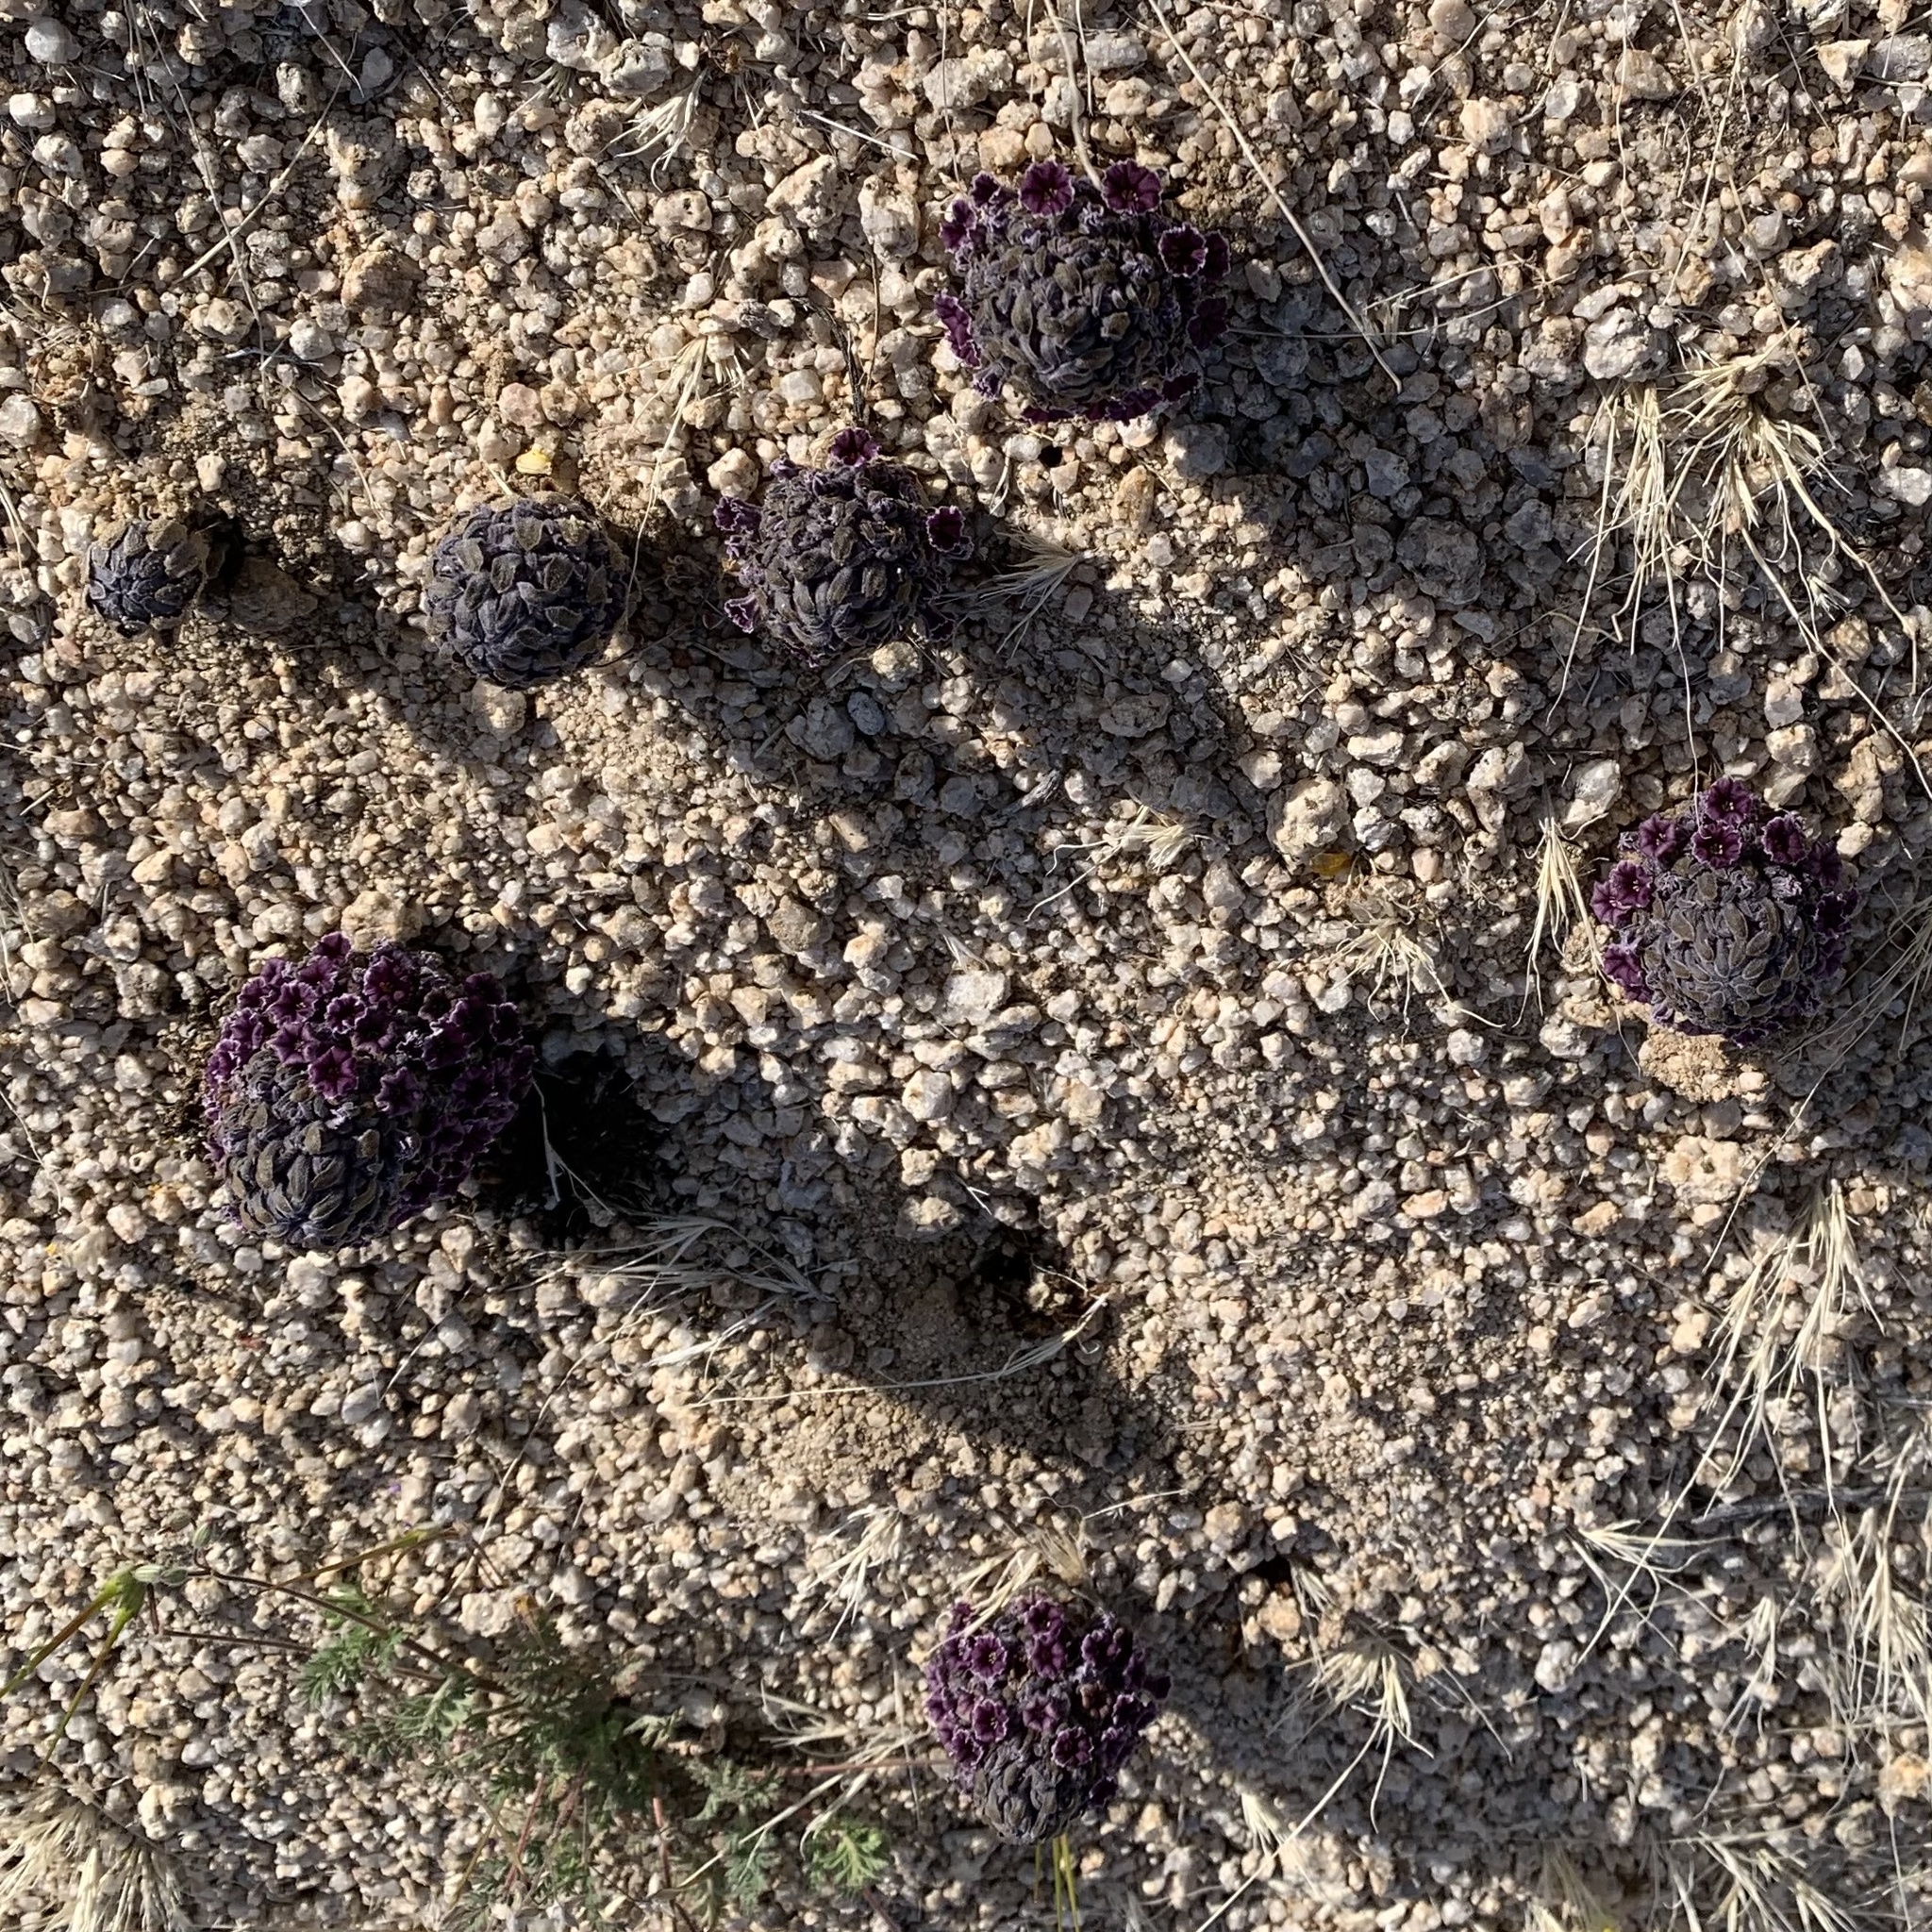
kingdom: Plantae
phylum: Tracheophyta
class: Magnoliopsida
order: Boraginales
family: Lennoaceae
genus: Pholisma
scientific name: Pholisma arenarium
